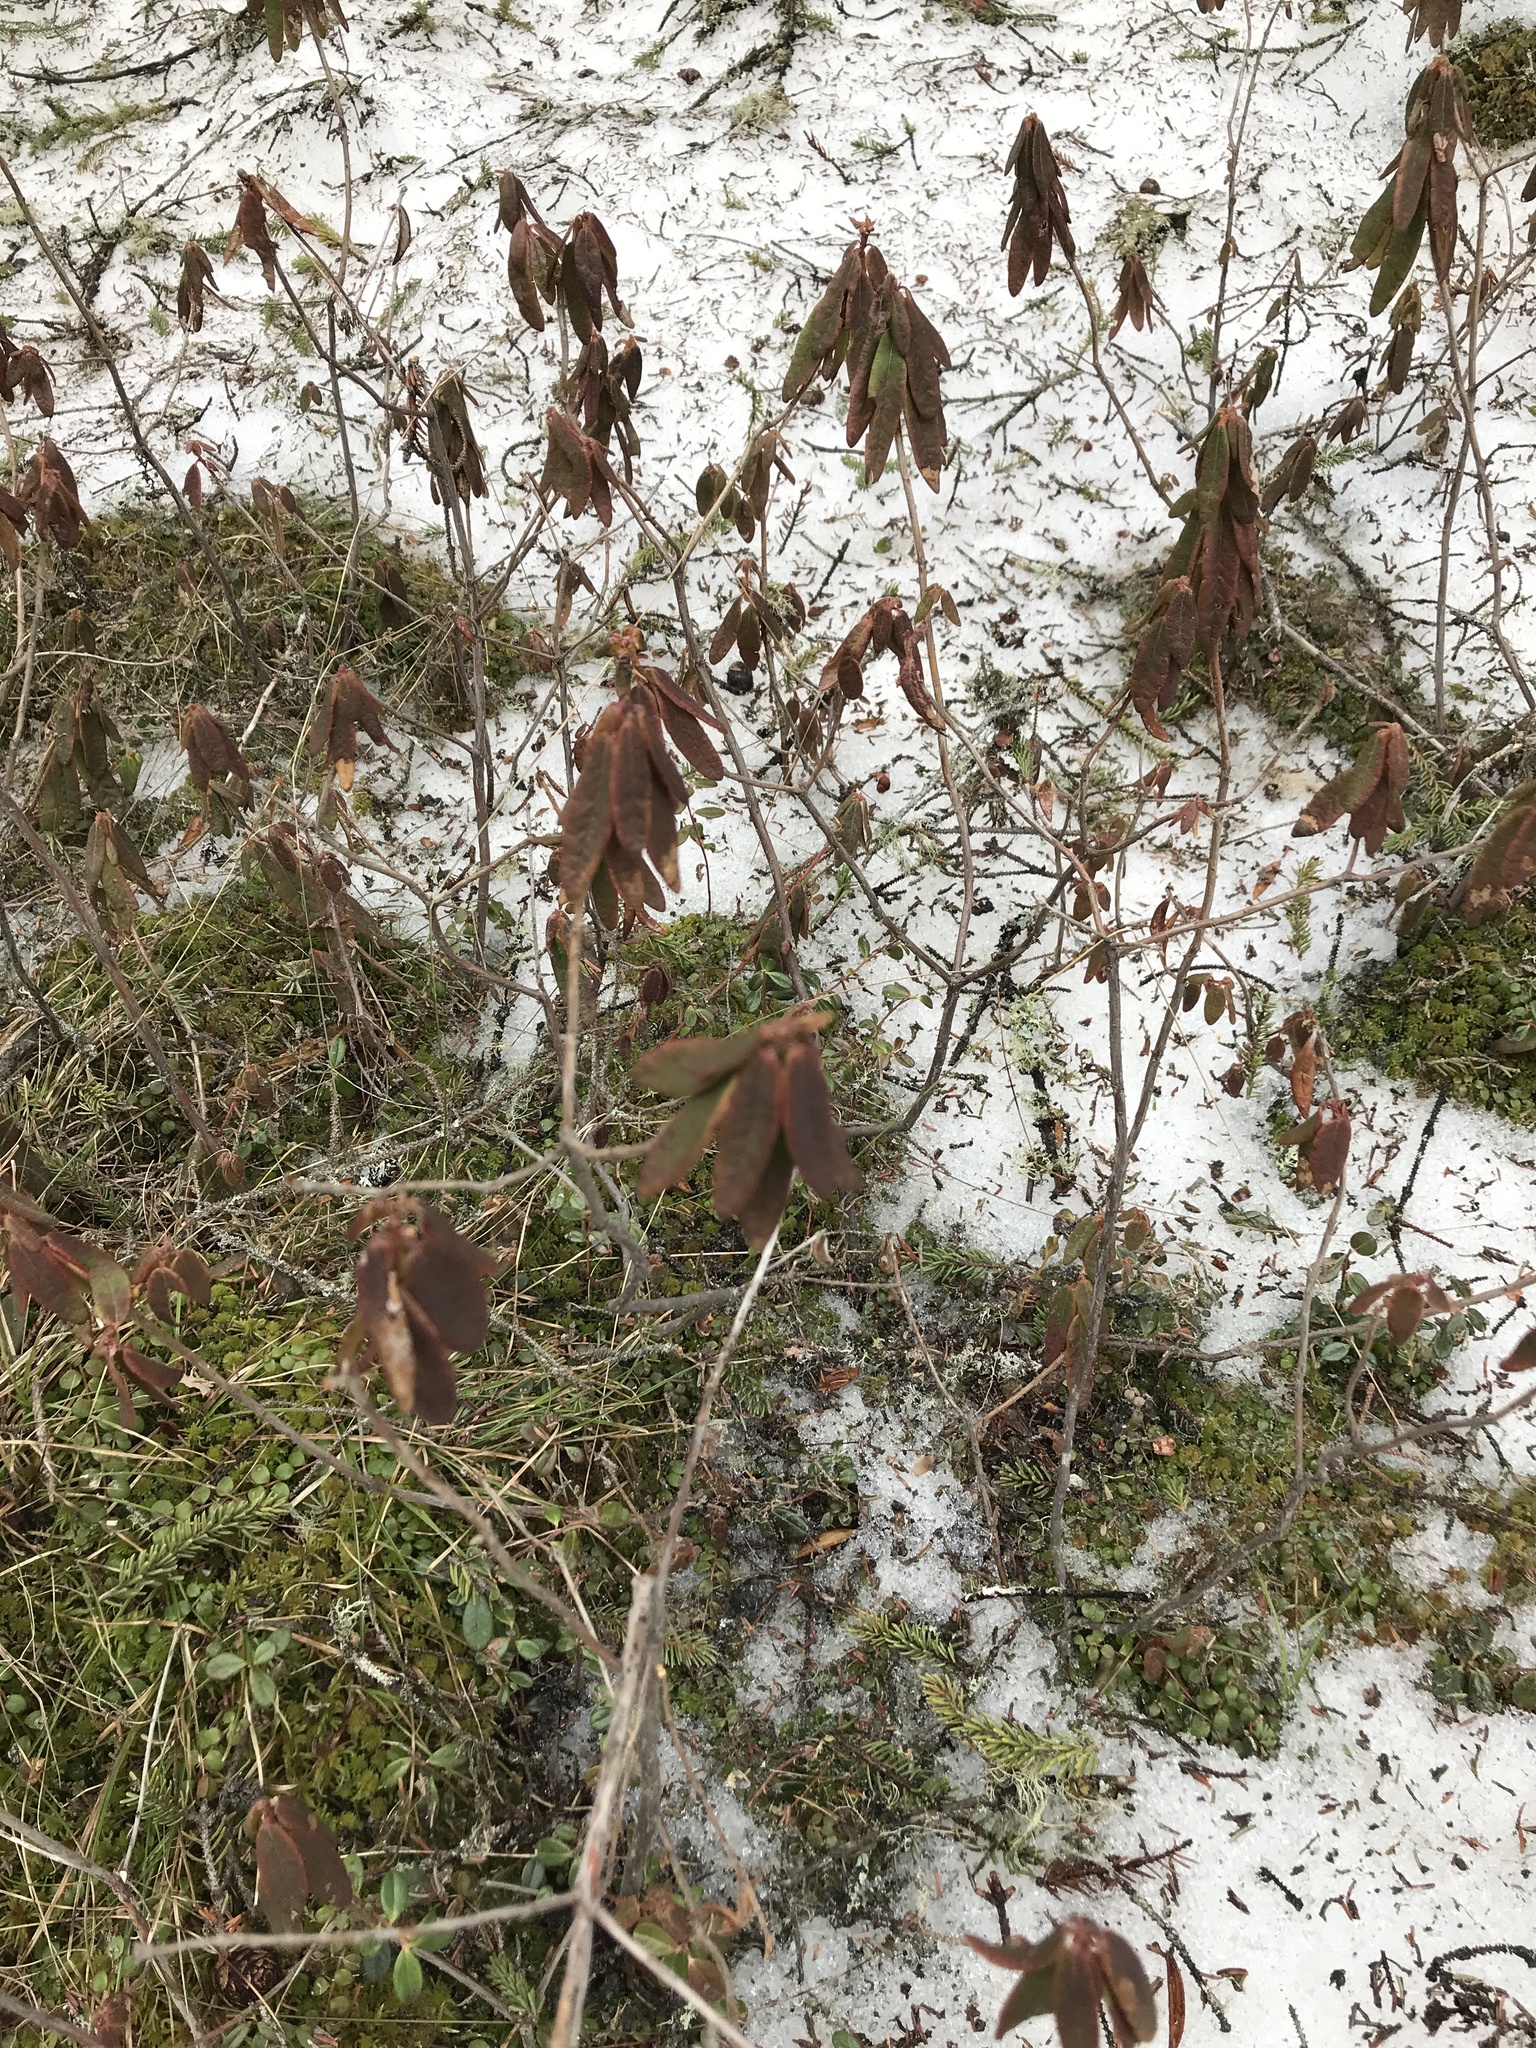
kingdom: Plantae
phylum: Tracheophyta
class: Magnoliopsida
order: Ericales
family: Ericaceae
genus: Rhododendron
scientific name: Rhododendron groenlandicum
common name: Bog labrador tea
